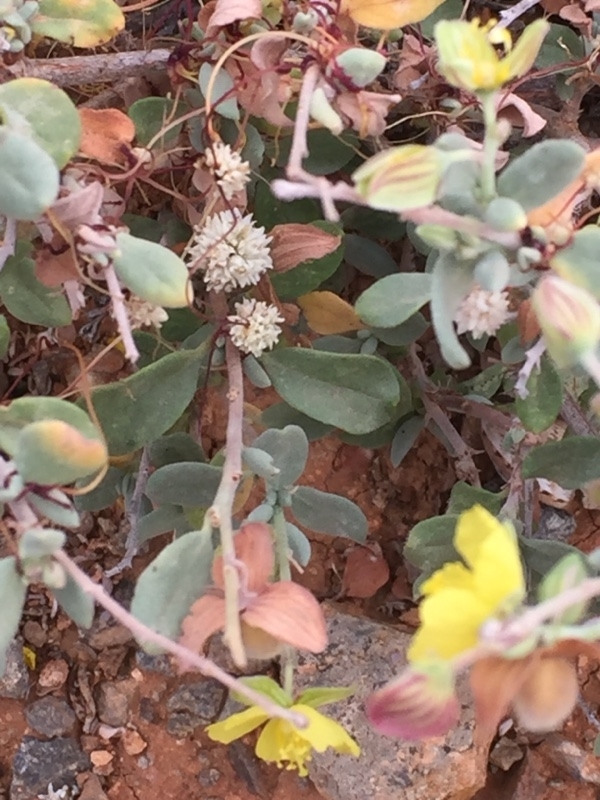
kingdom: Plantae
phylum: Tracheophyta
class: Magnoliopsida
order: Solanales
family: Convolvulaceae
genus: Cuscuta
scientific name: Cuscuta approximata
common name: Alfalfa dodder
